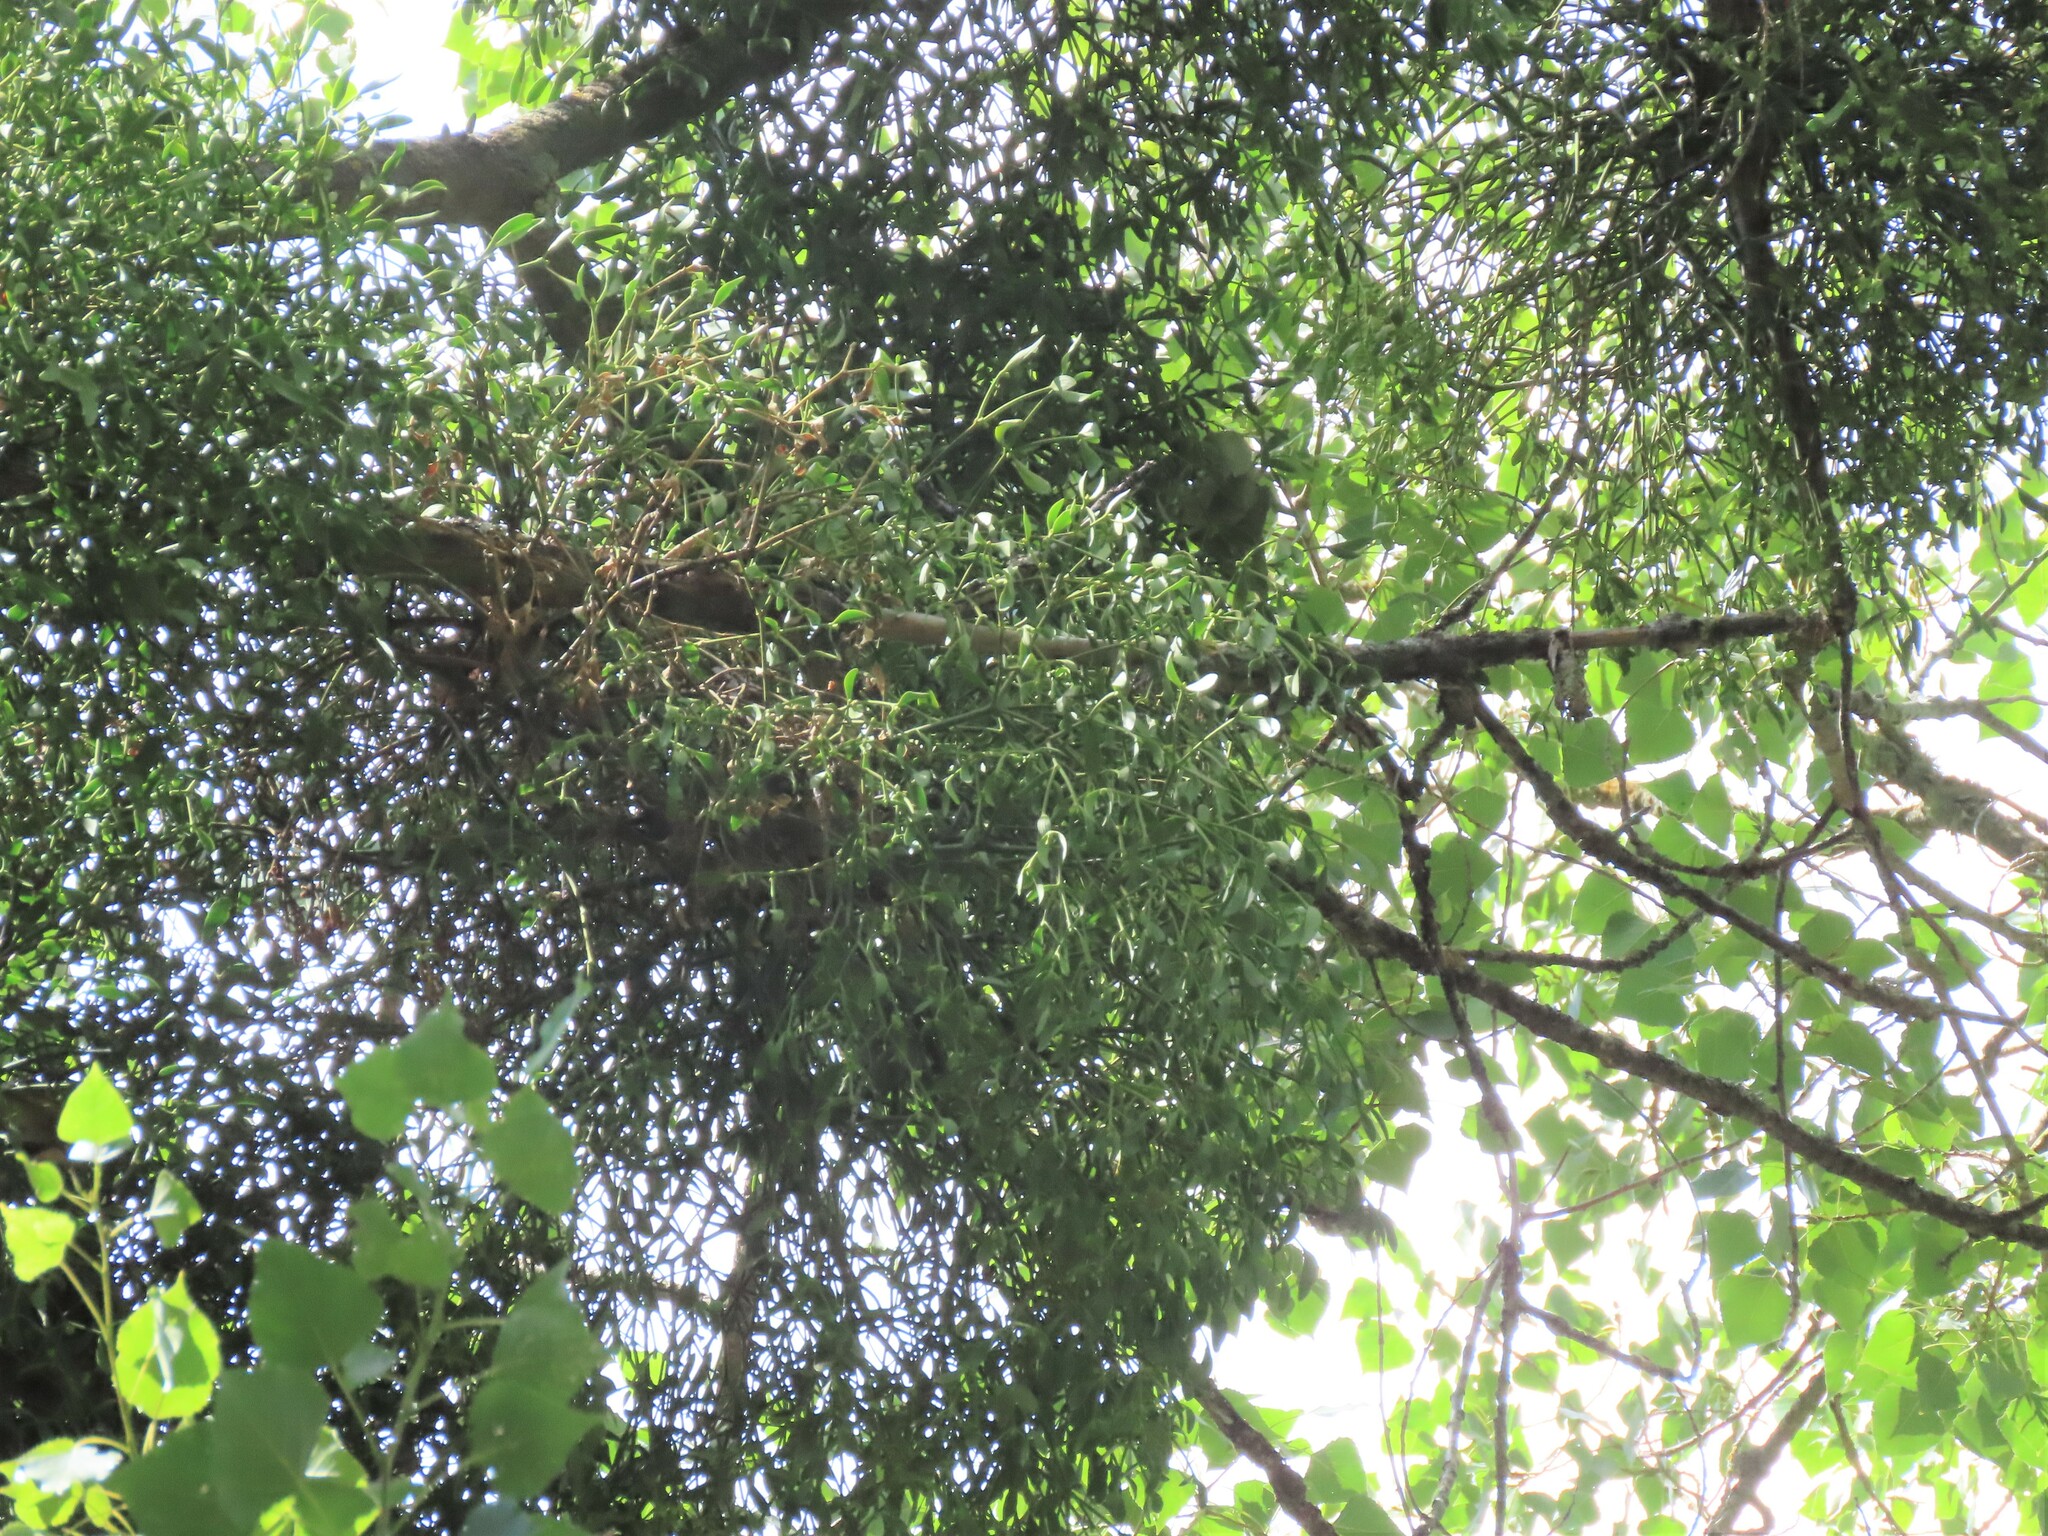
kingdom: Plantae
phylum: Tracheophyta
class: Magnoliopsida
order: Santalales
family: Viscaceae
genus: Viscum
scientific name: Viscum album
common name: Mistletoe
